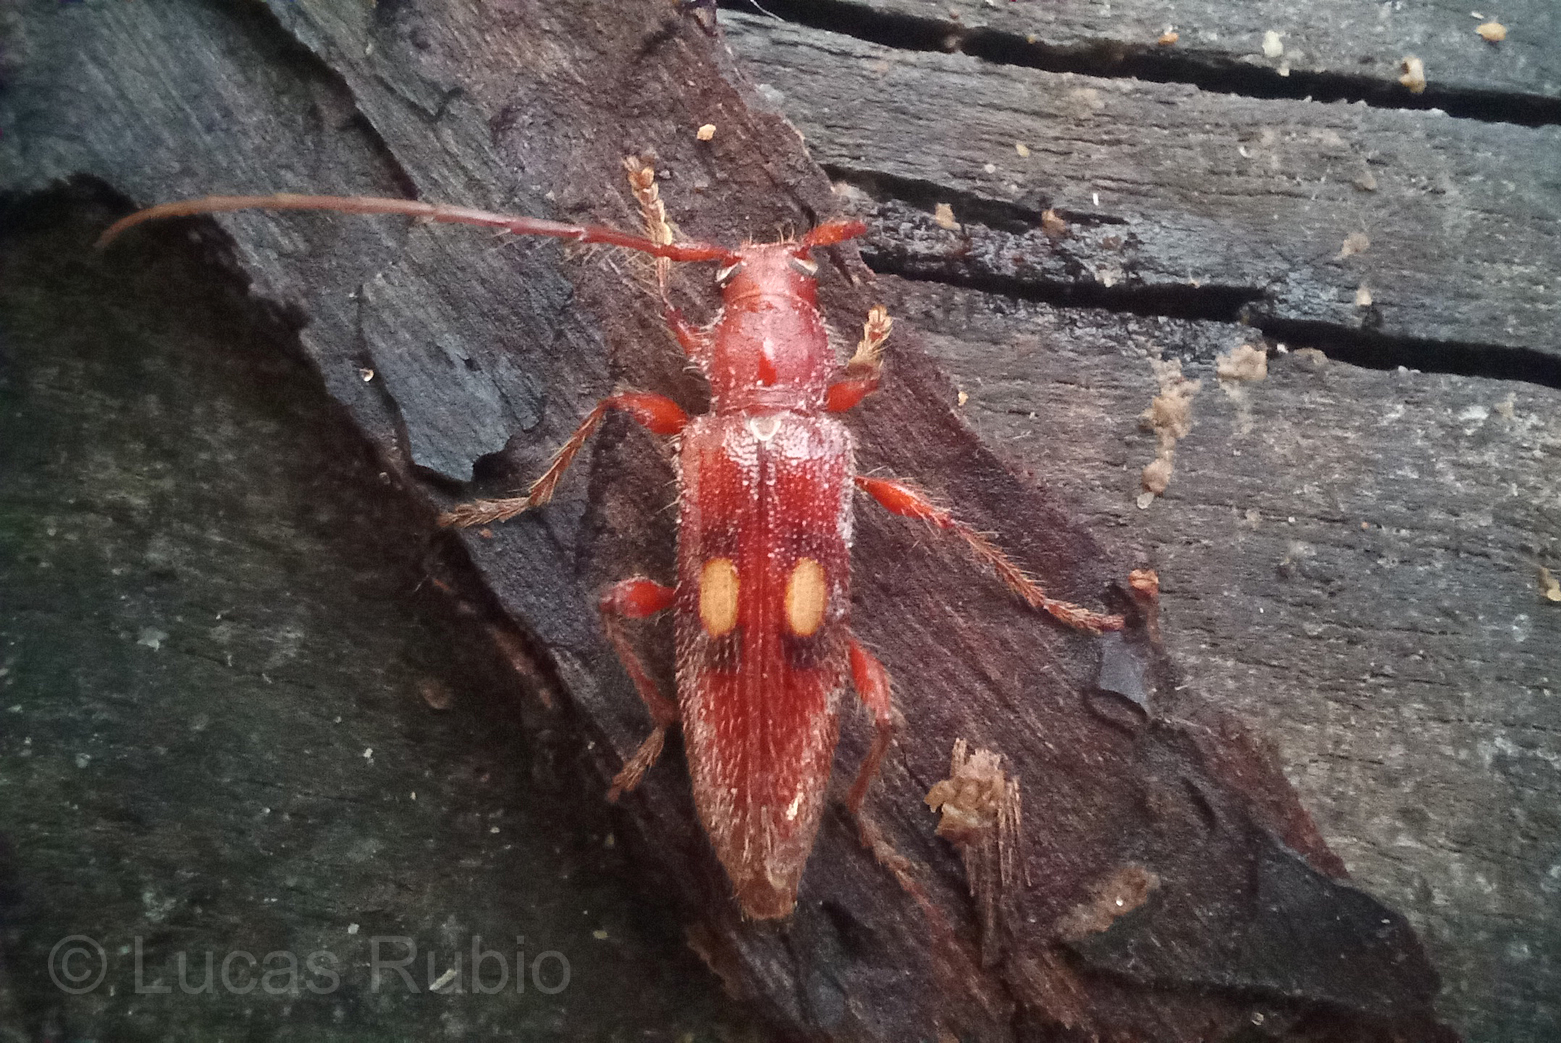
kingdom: Animalia
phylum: Arthropoda
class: Insecta
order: Coleoptera
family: Cerambycidae
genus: Periboeum
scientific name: Periboeum ocellatum
